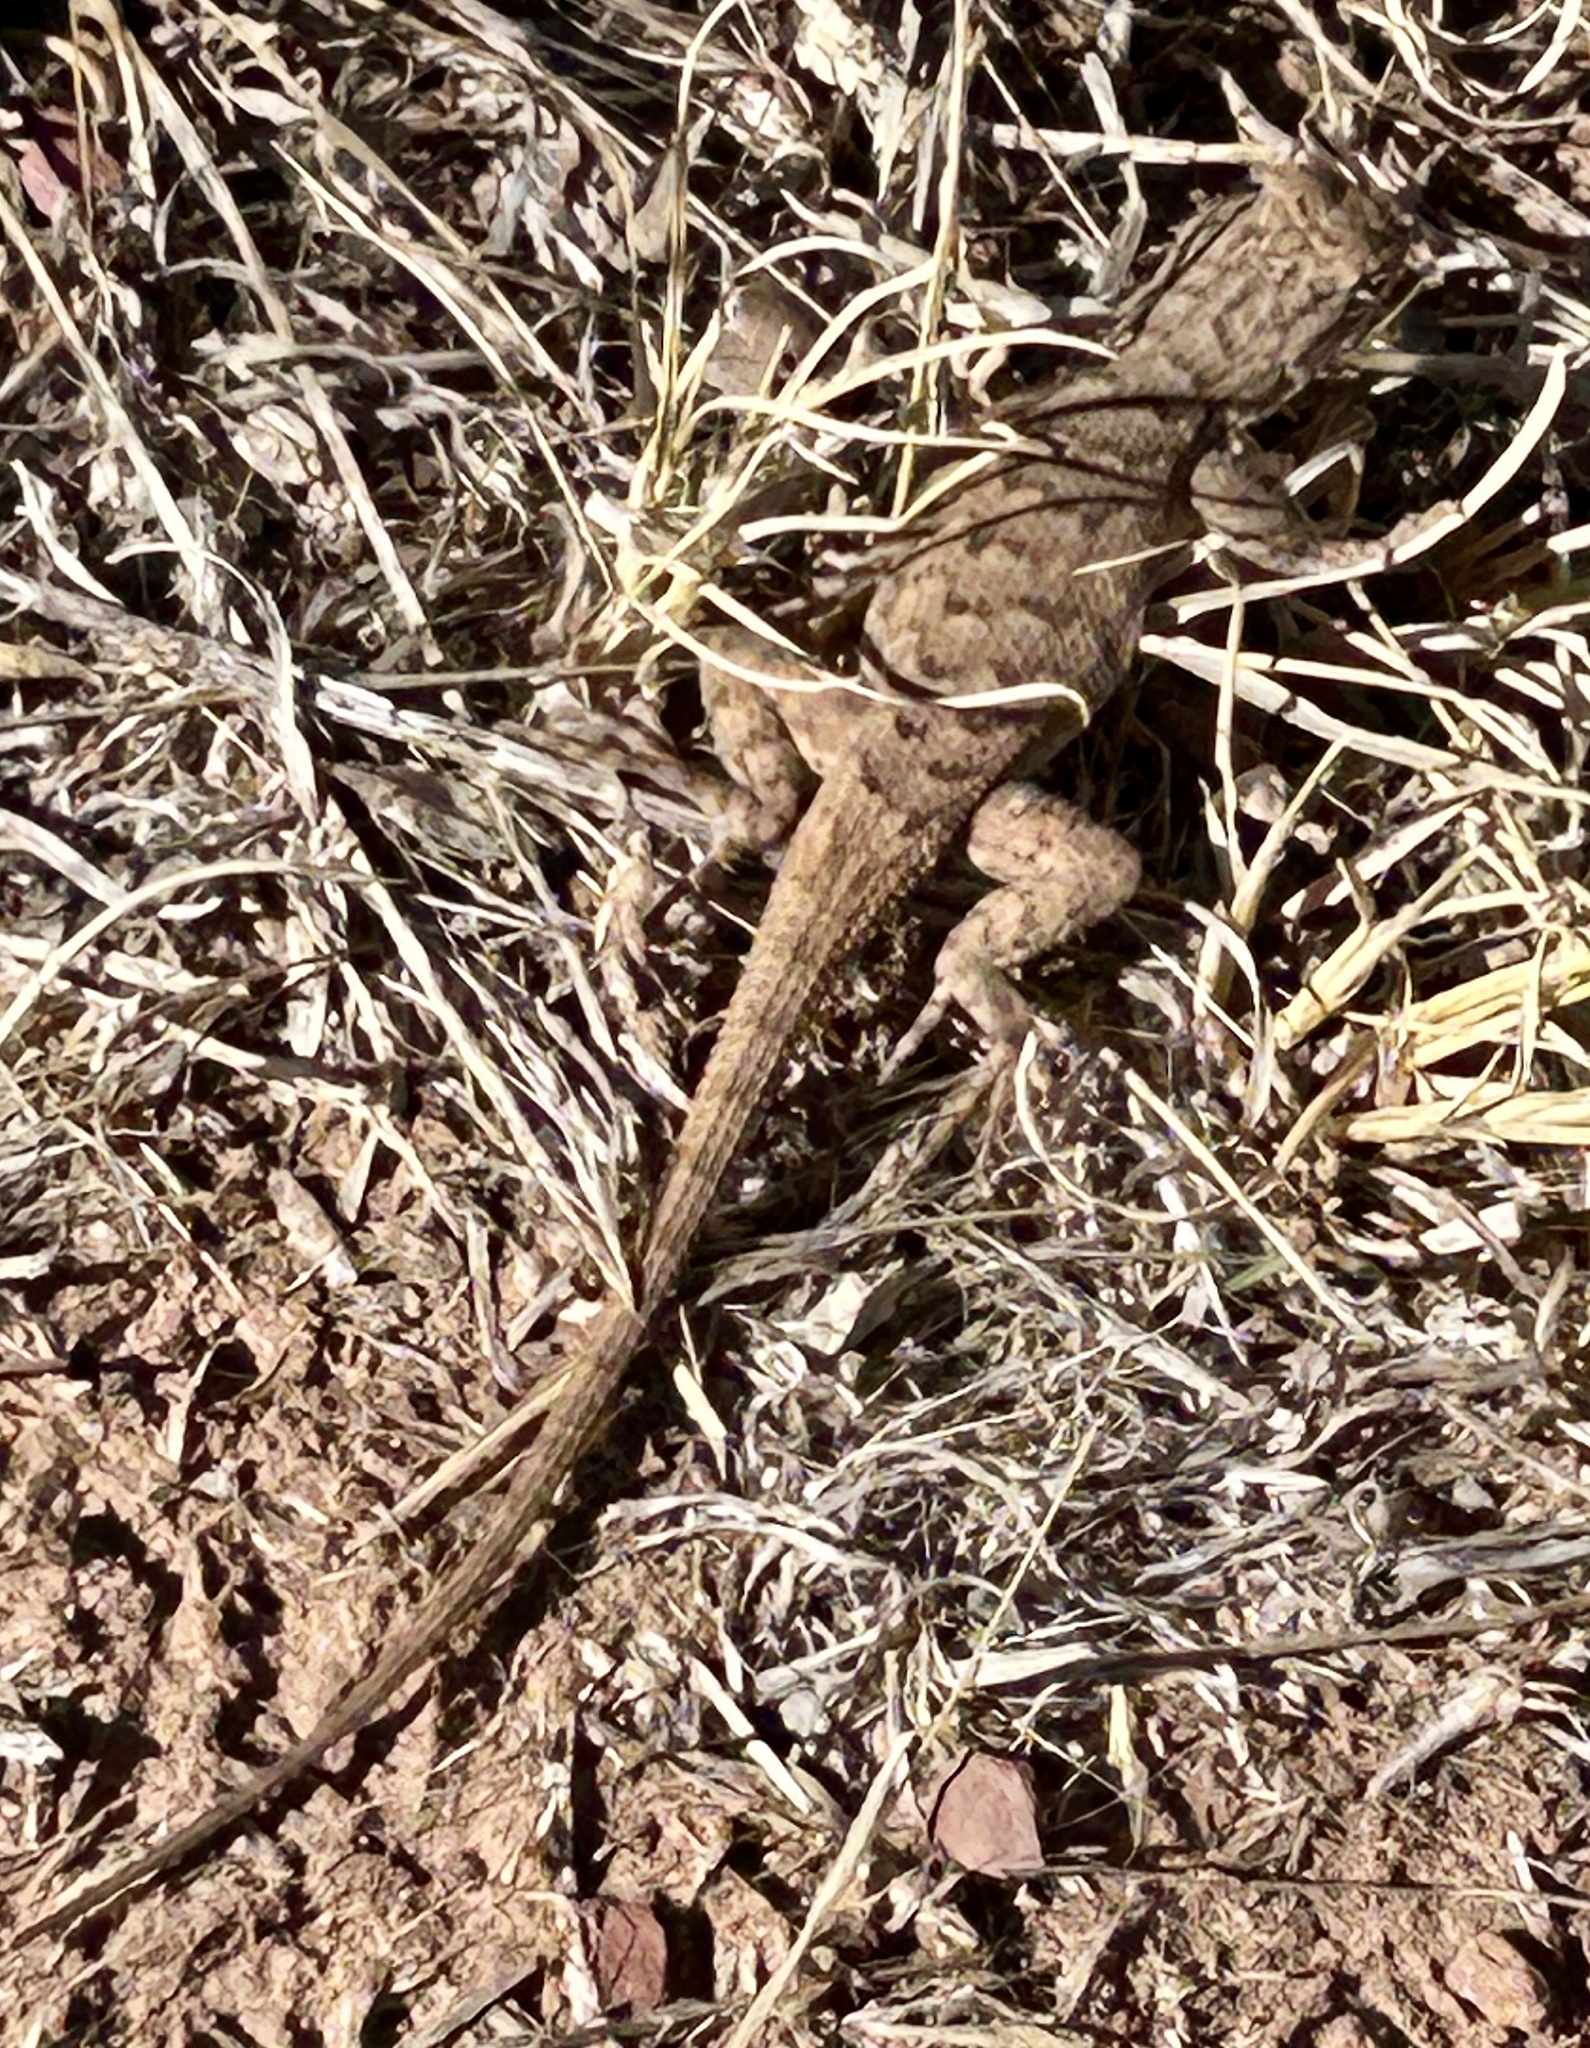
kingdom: Animalia
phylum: Chordata
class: Squamata
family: Phrynosomatidae
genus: Sceloporus
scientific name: Sceloporus tristichus
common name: Plateau fence lizard
